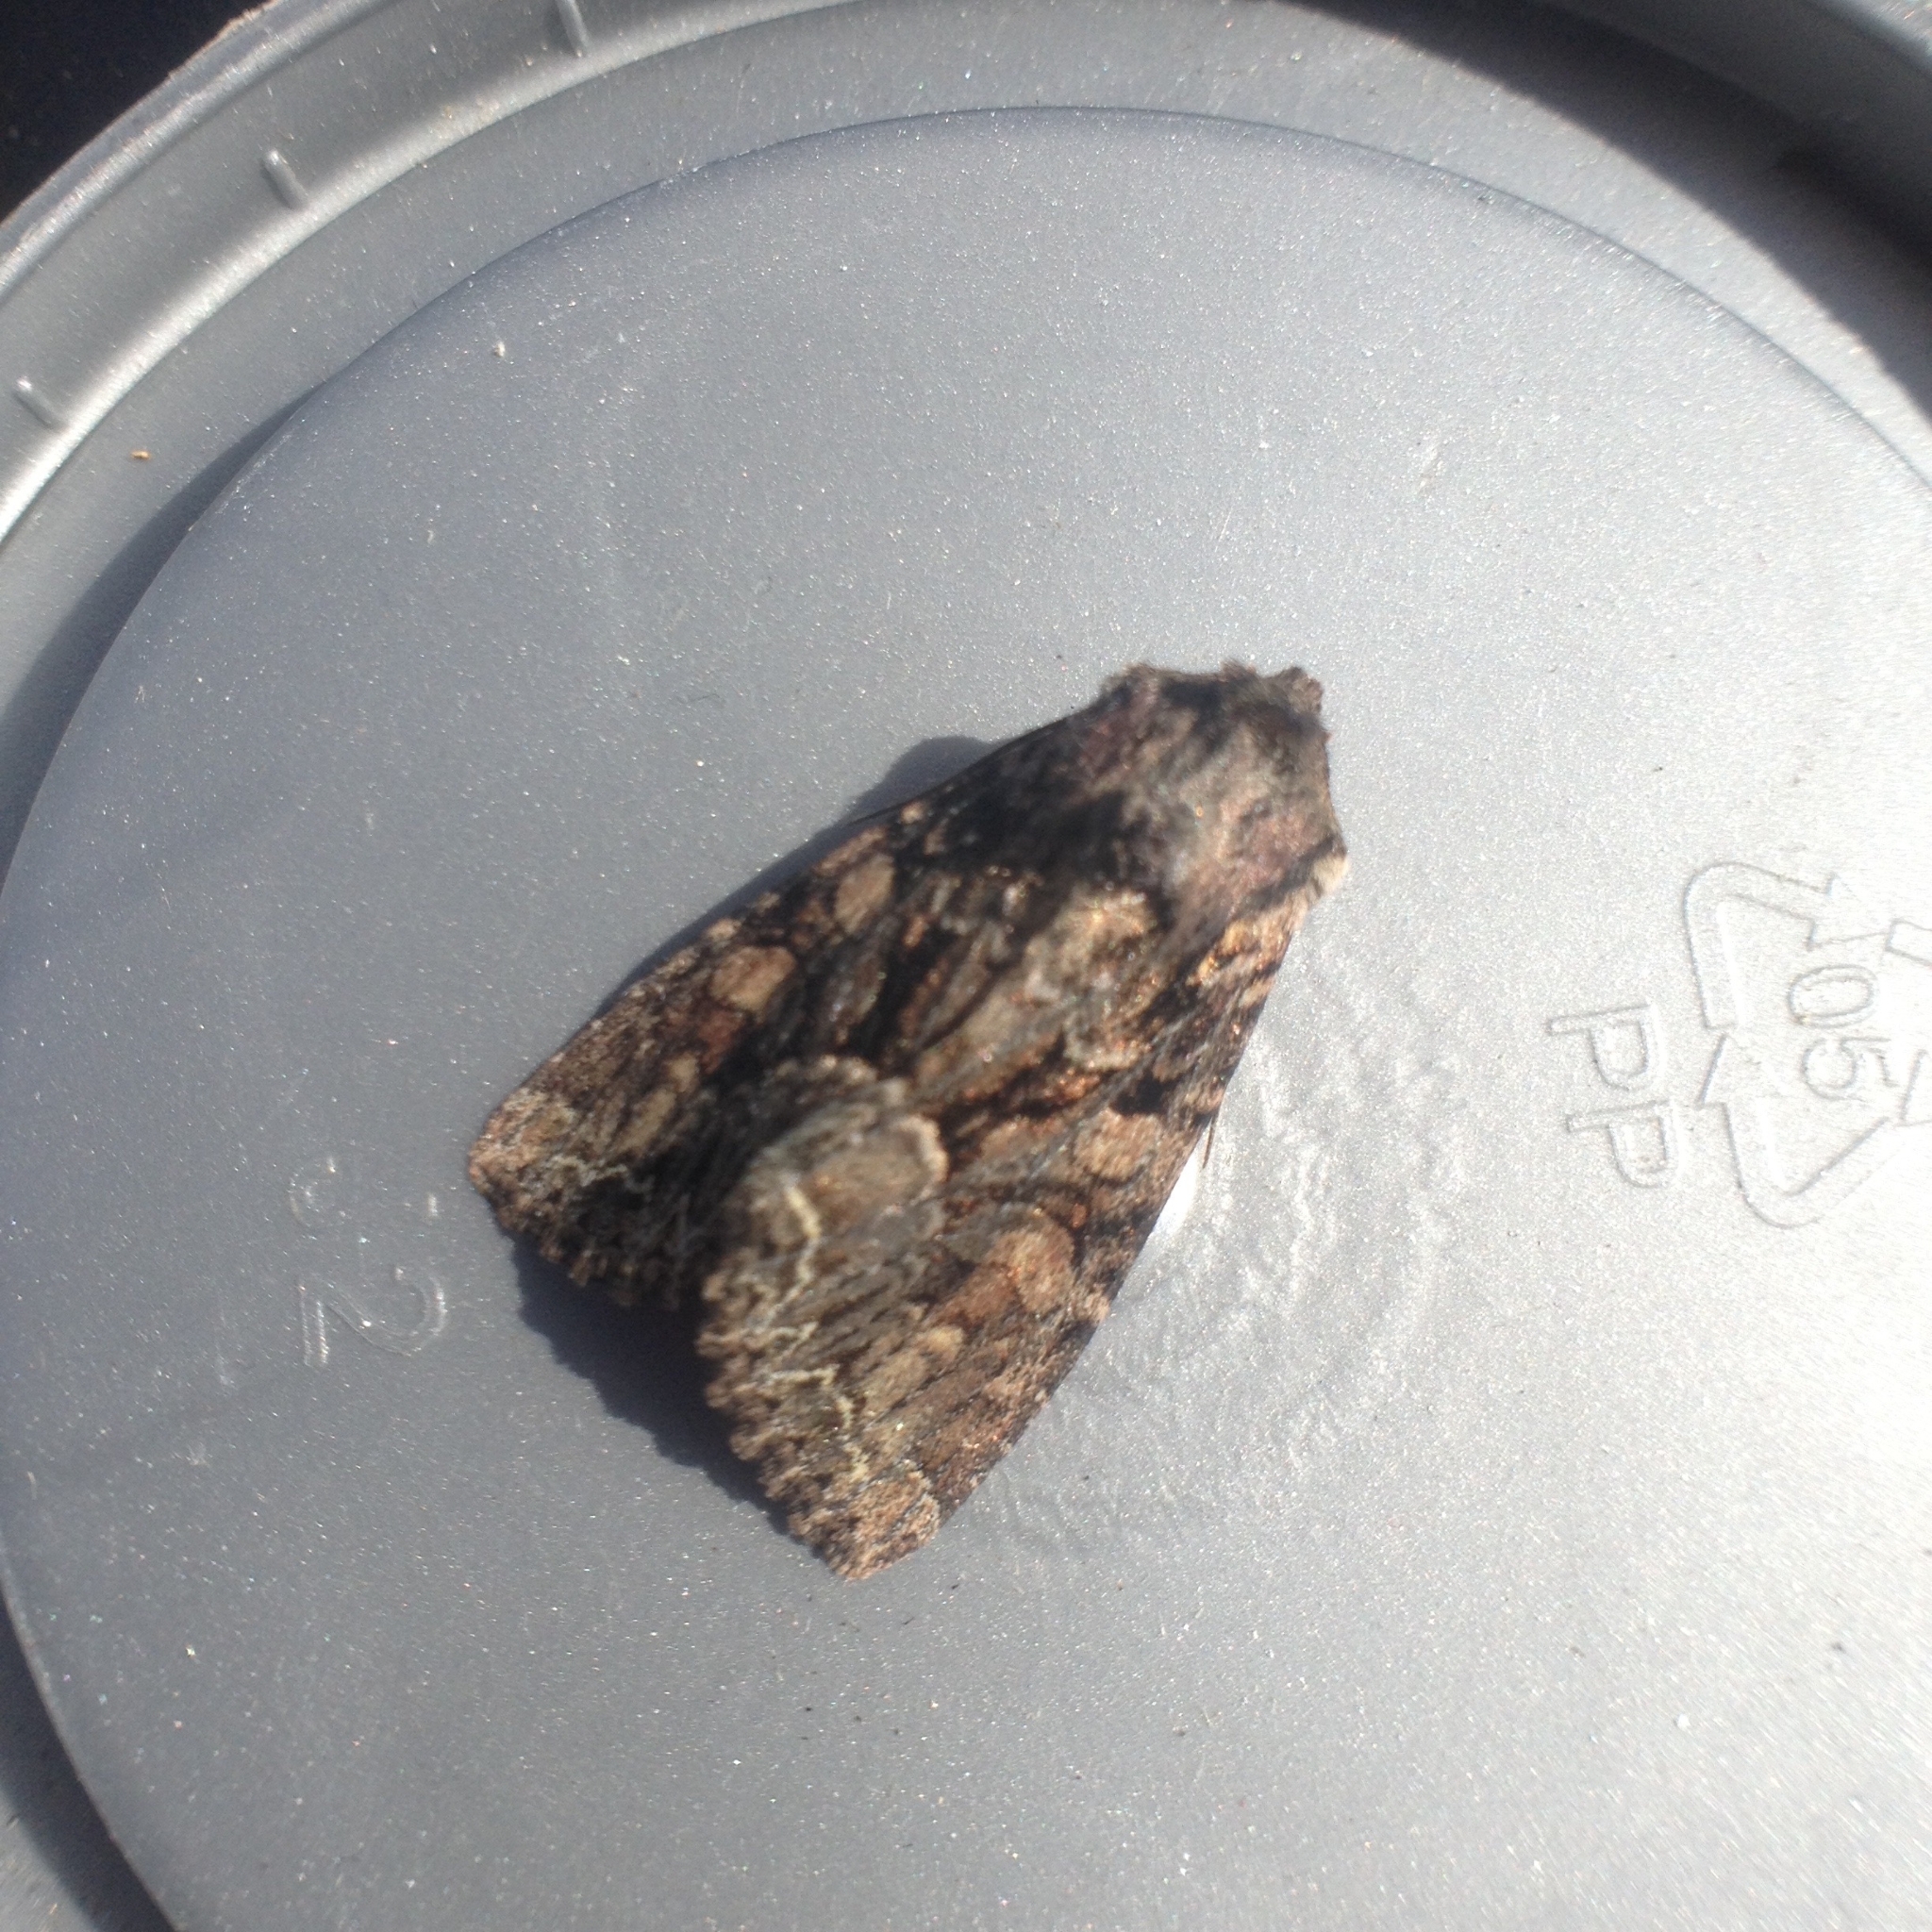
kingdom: Animalia
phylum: Arthropoda
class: Insecta
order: Lepidoptera
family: Noctuidae
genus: Lacanobia
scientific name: Lacanobia thalassina
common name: Pale-shouldered brocade
